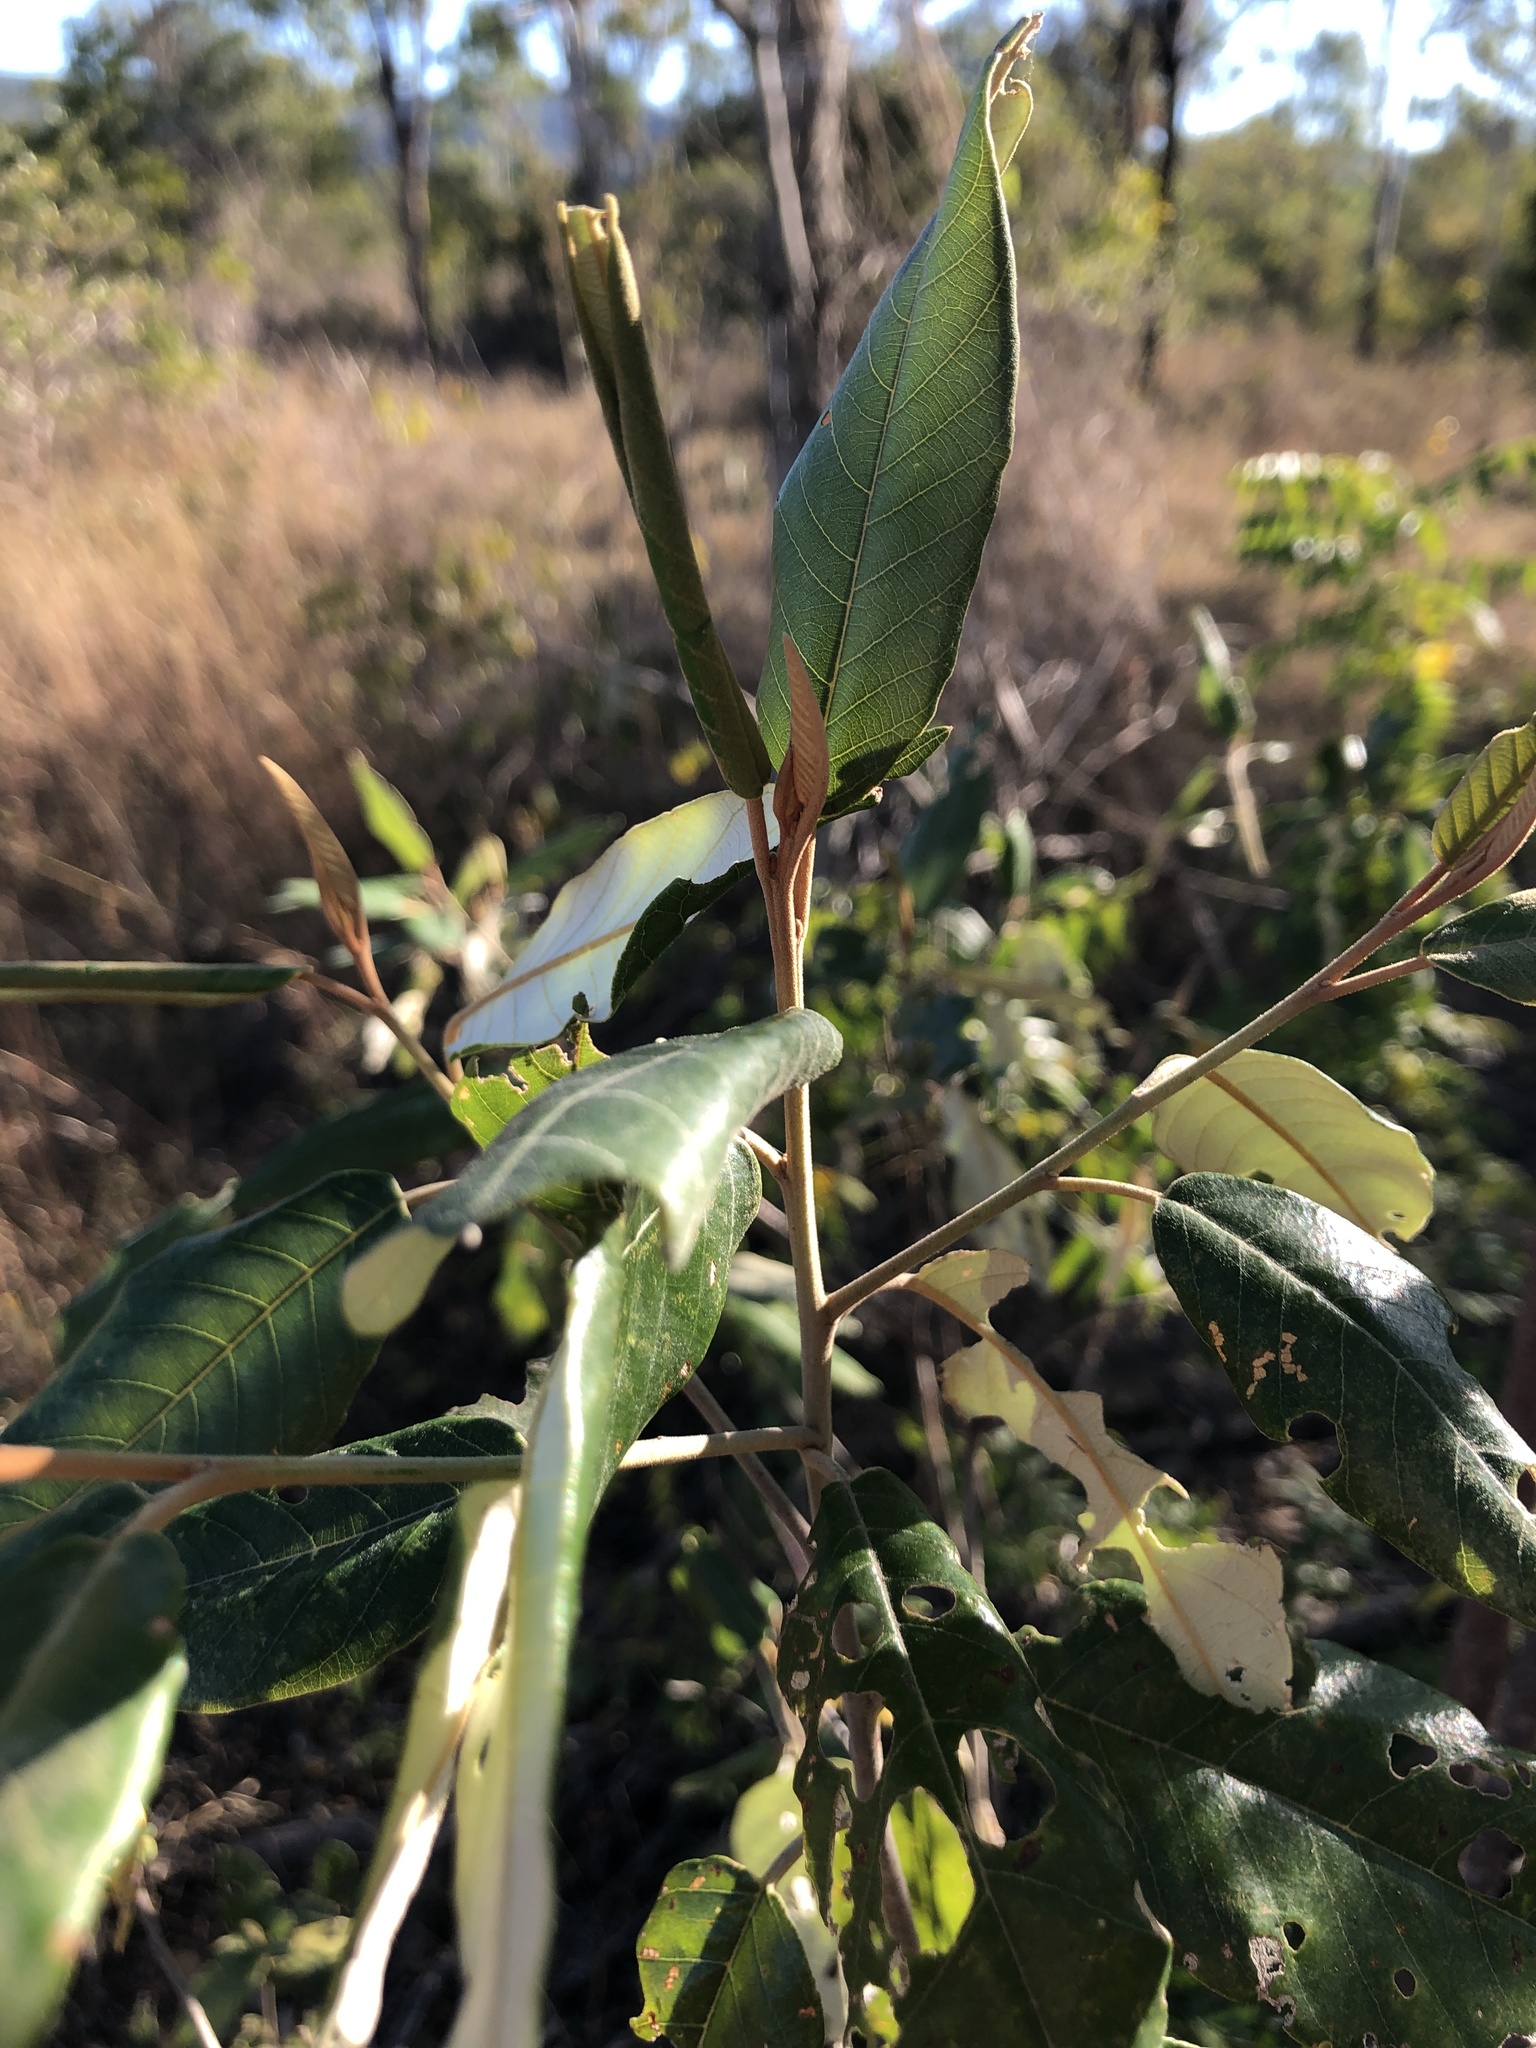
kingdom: Plantae
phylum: Tracheophyta
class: Magnoliopsida
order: Rosales
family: Rhamnaceae
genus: Alphitonia
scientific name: Alphitonia excelsa
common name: Red ash
